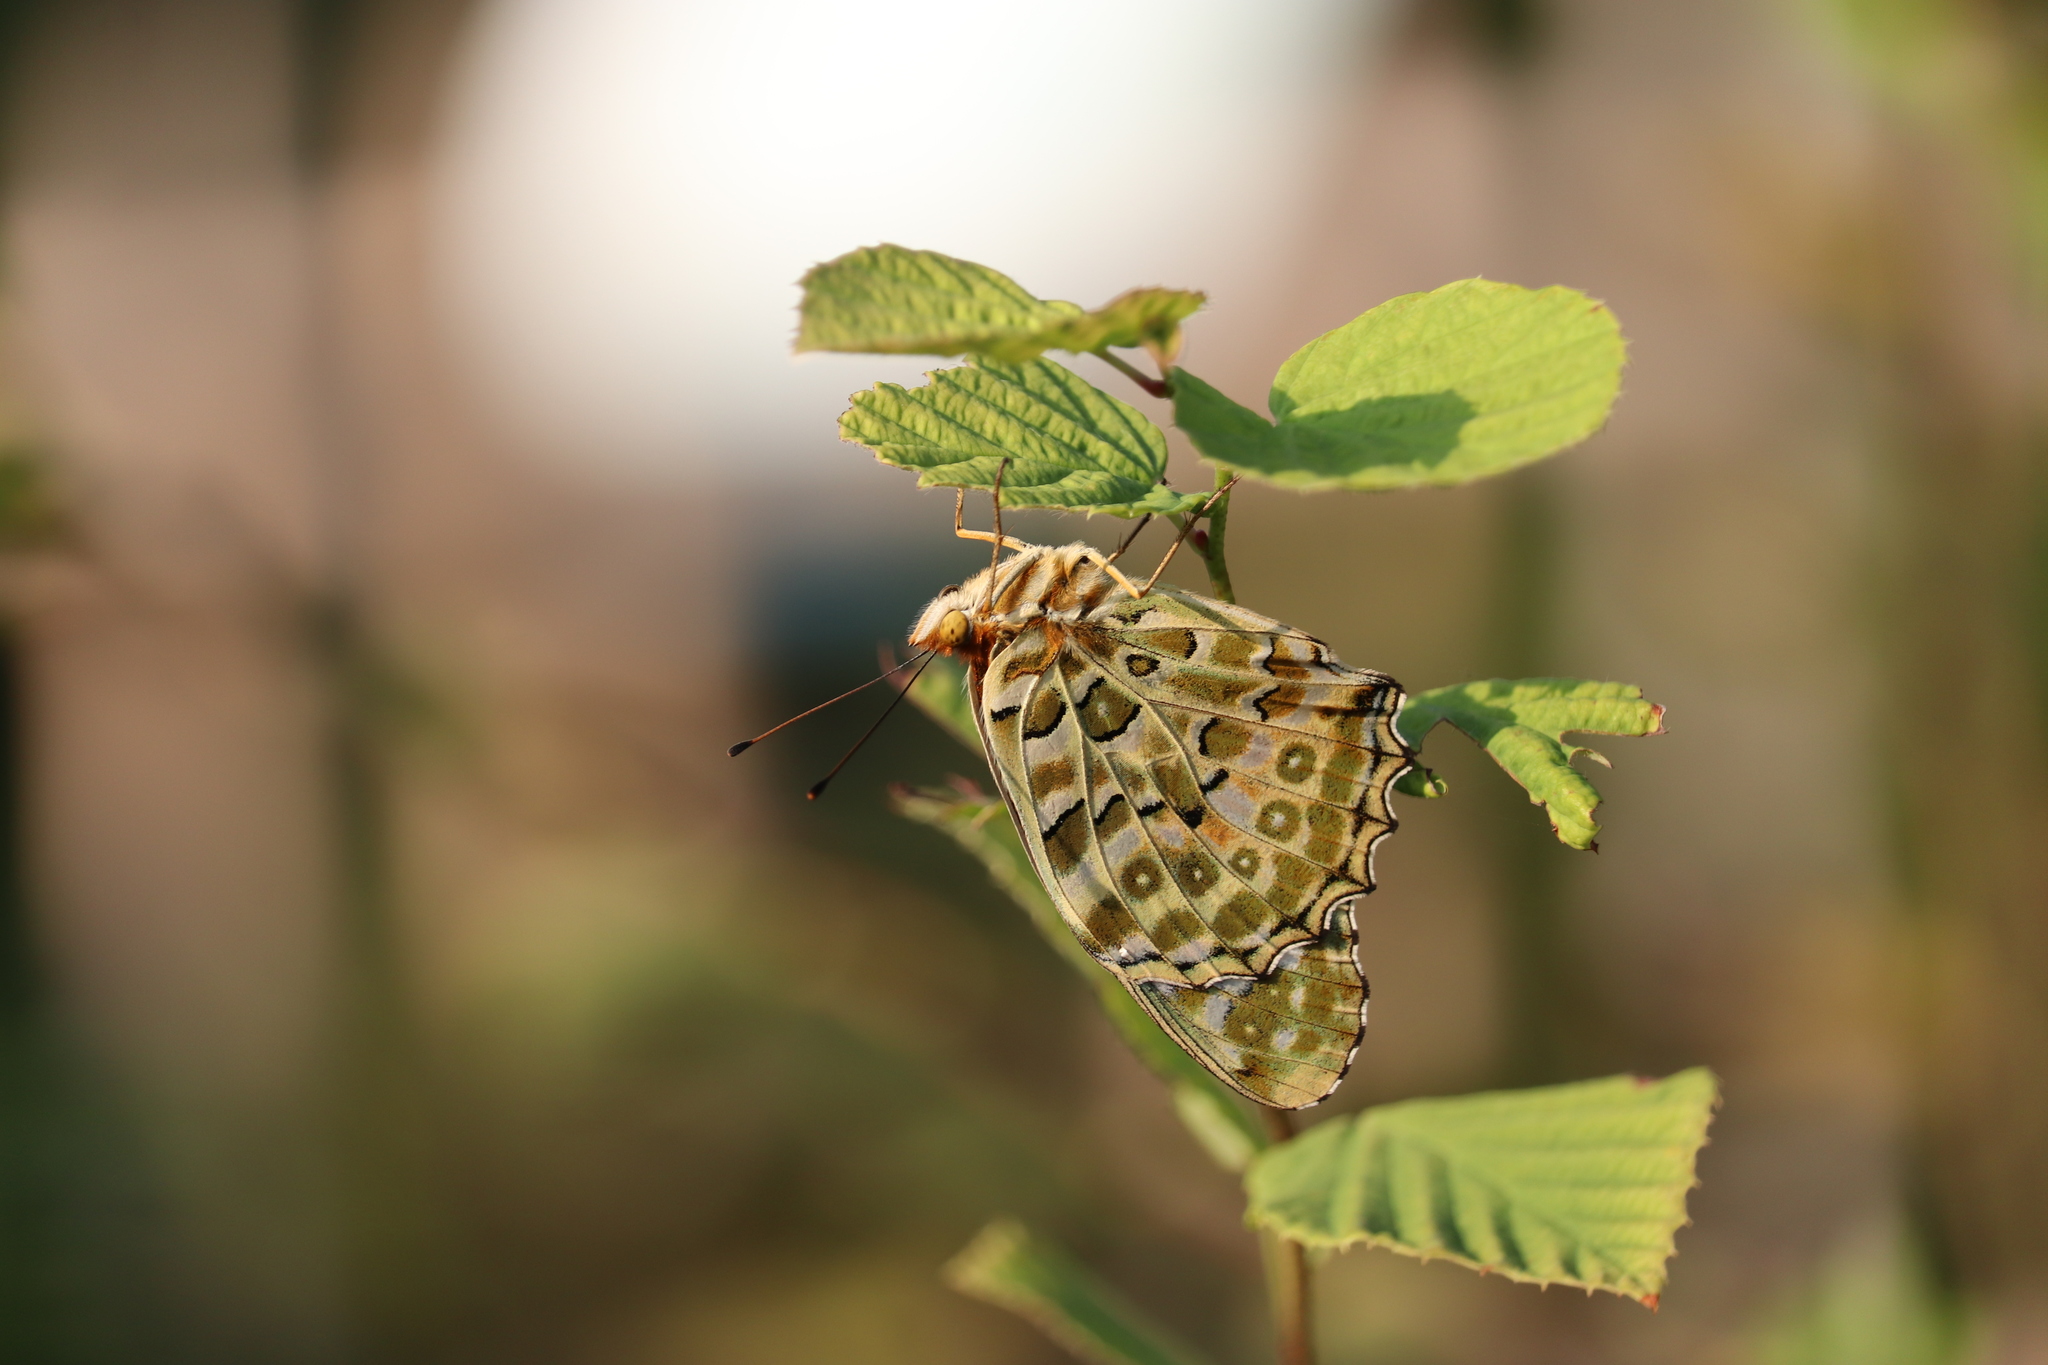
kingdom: Animalia
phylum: Arthropoda
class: Insecta
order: Lepidoptera
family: Nymphalidae
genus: Argynnis
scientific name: Argynnis hyperbius
